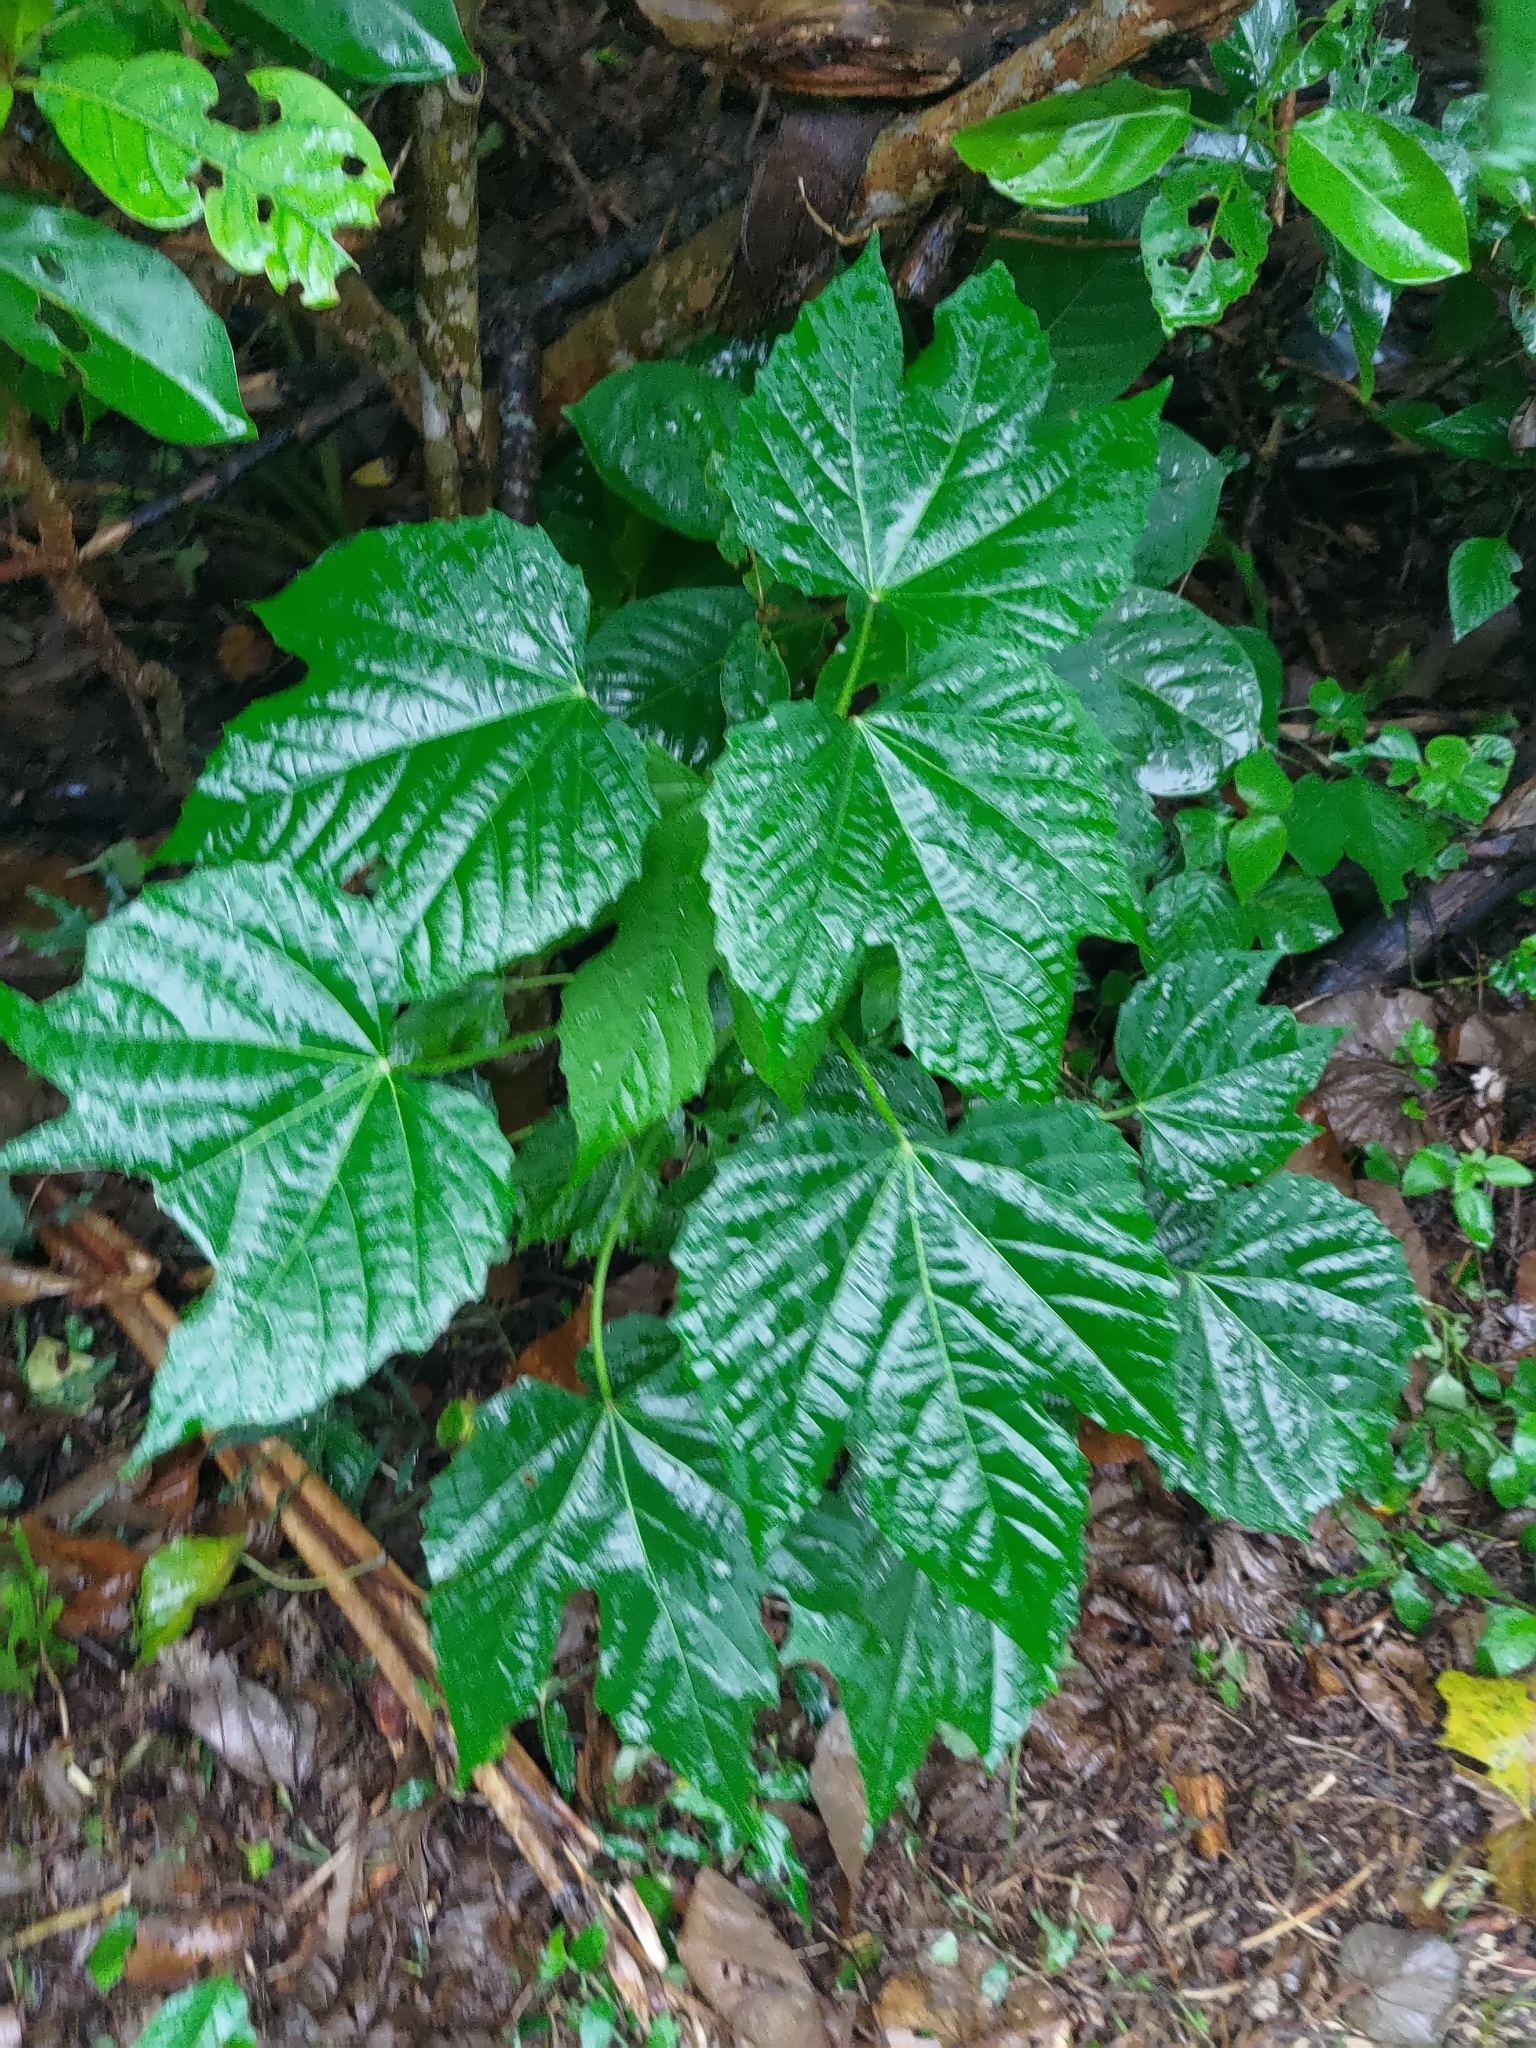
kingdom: Plantae
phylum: Tracheophyta
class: Magnoliopsida
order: Malpighiales
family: Euphorbiaceae
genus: Melanolepis
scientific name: Melanolepis multiglandulosa
